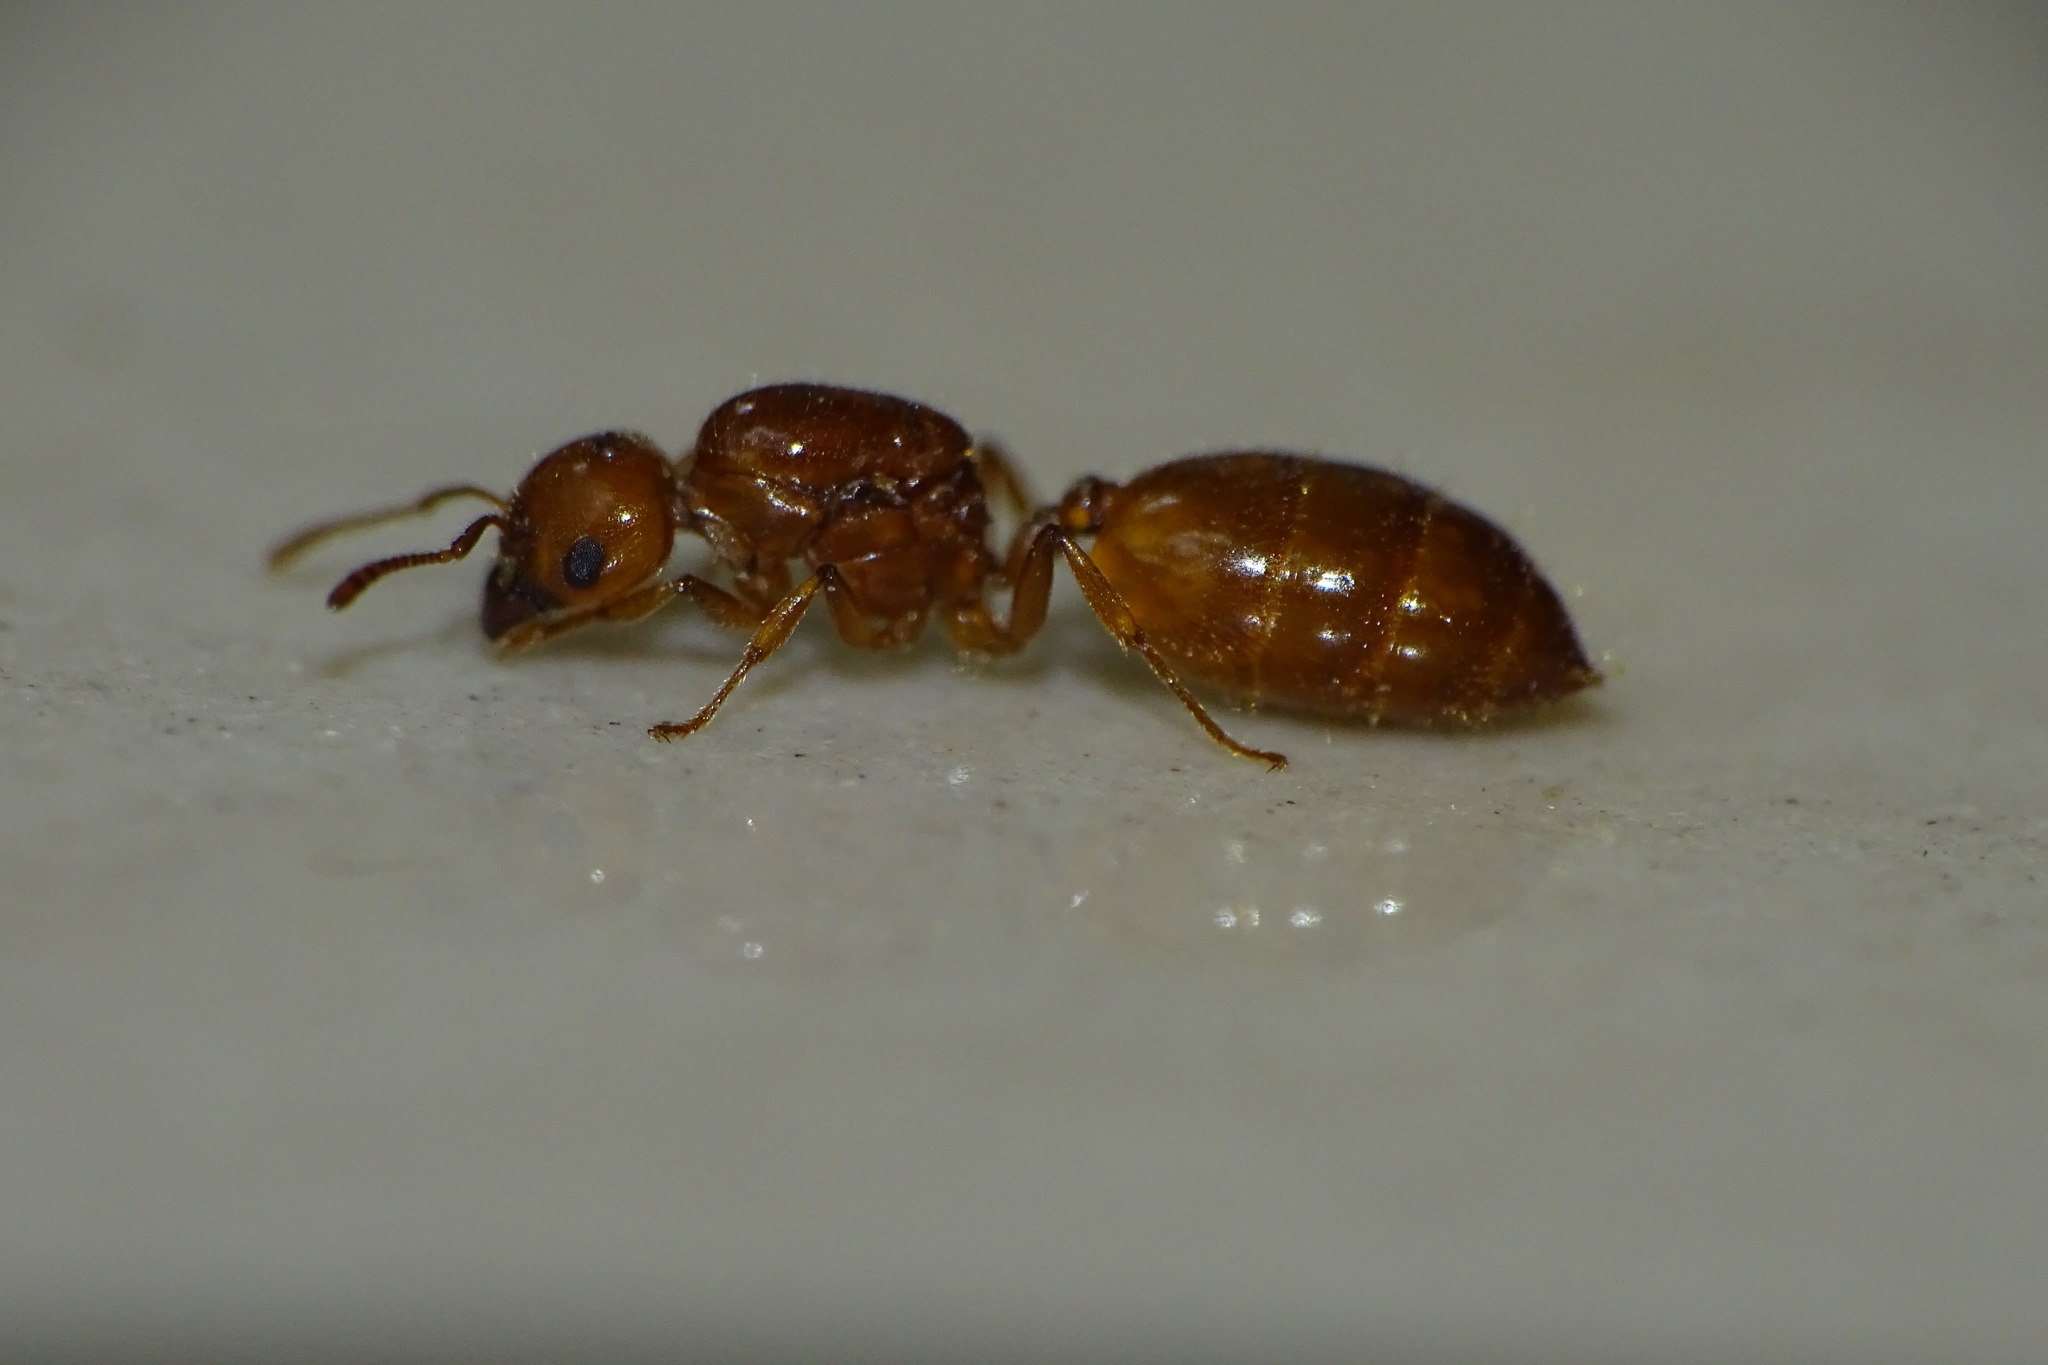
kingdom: Animalia
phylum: Arthropoda
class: Insecta
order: Hymenoptera
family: Formicidae
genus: Crematogaster
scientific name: Crematogaster biroi
